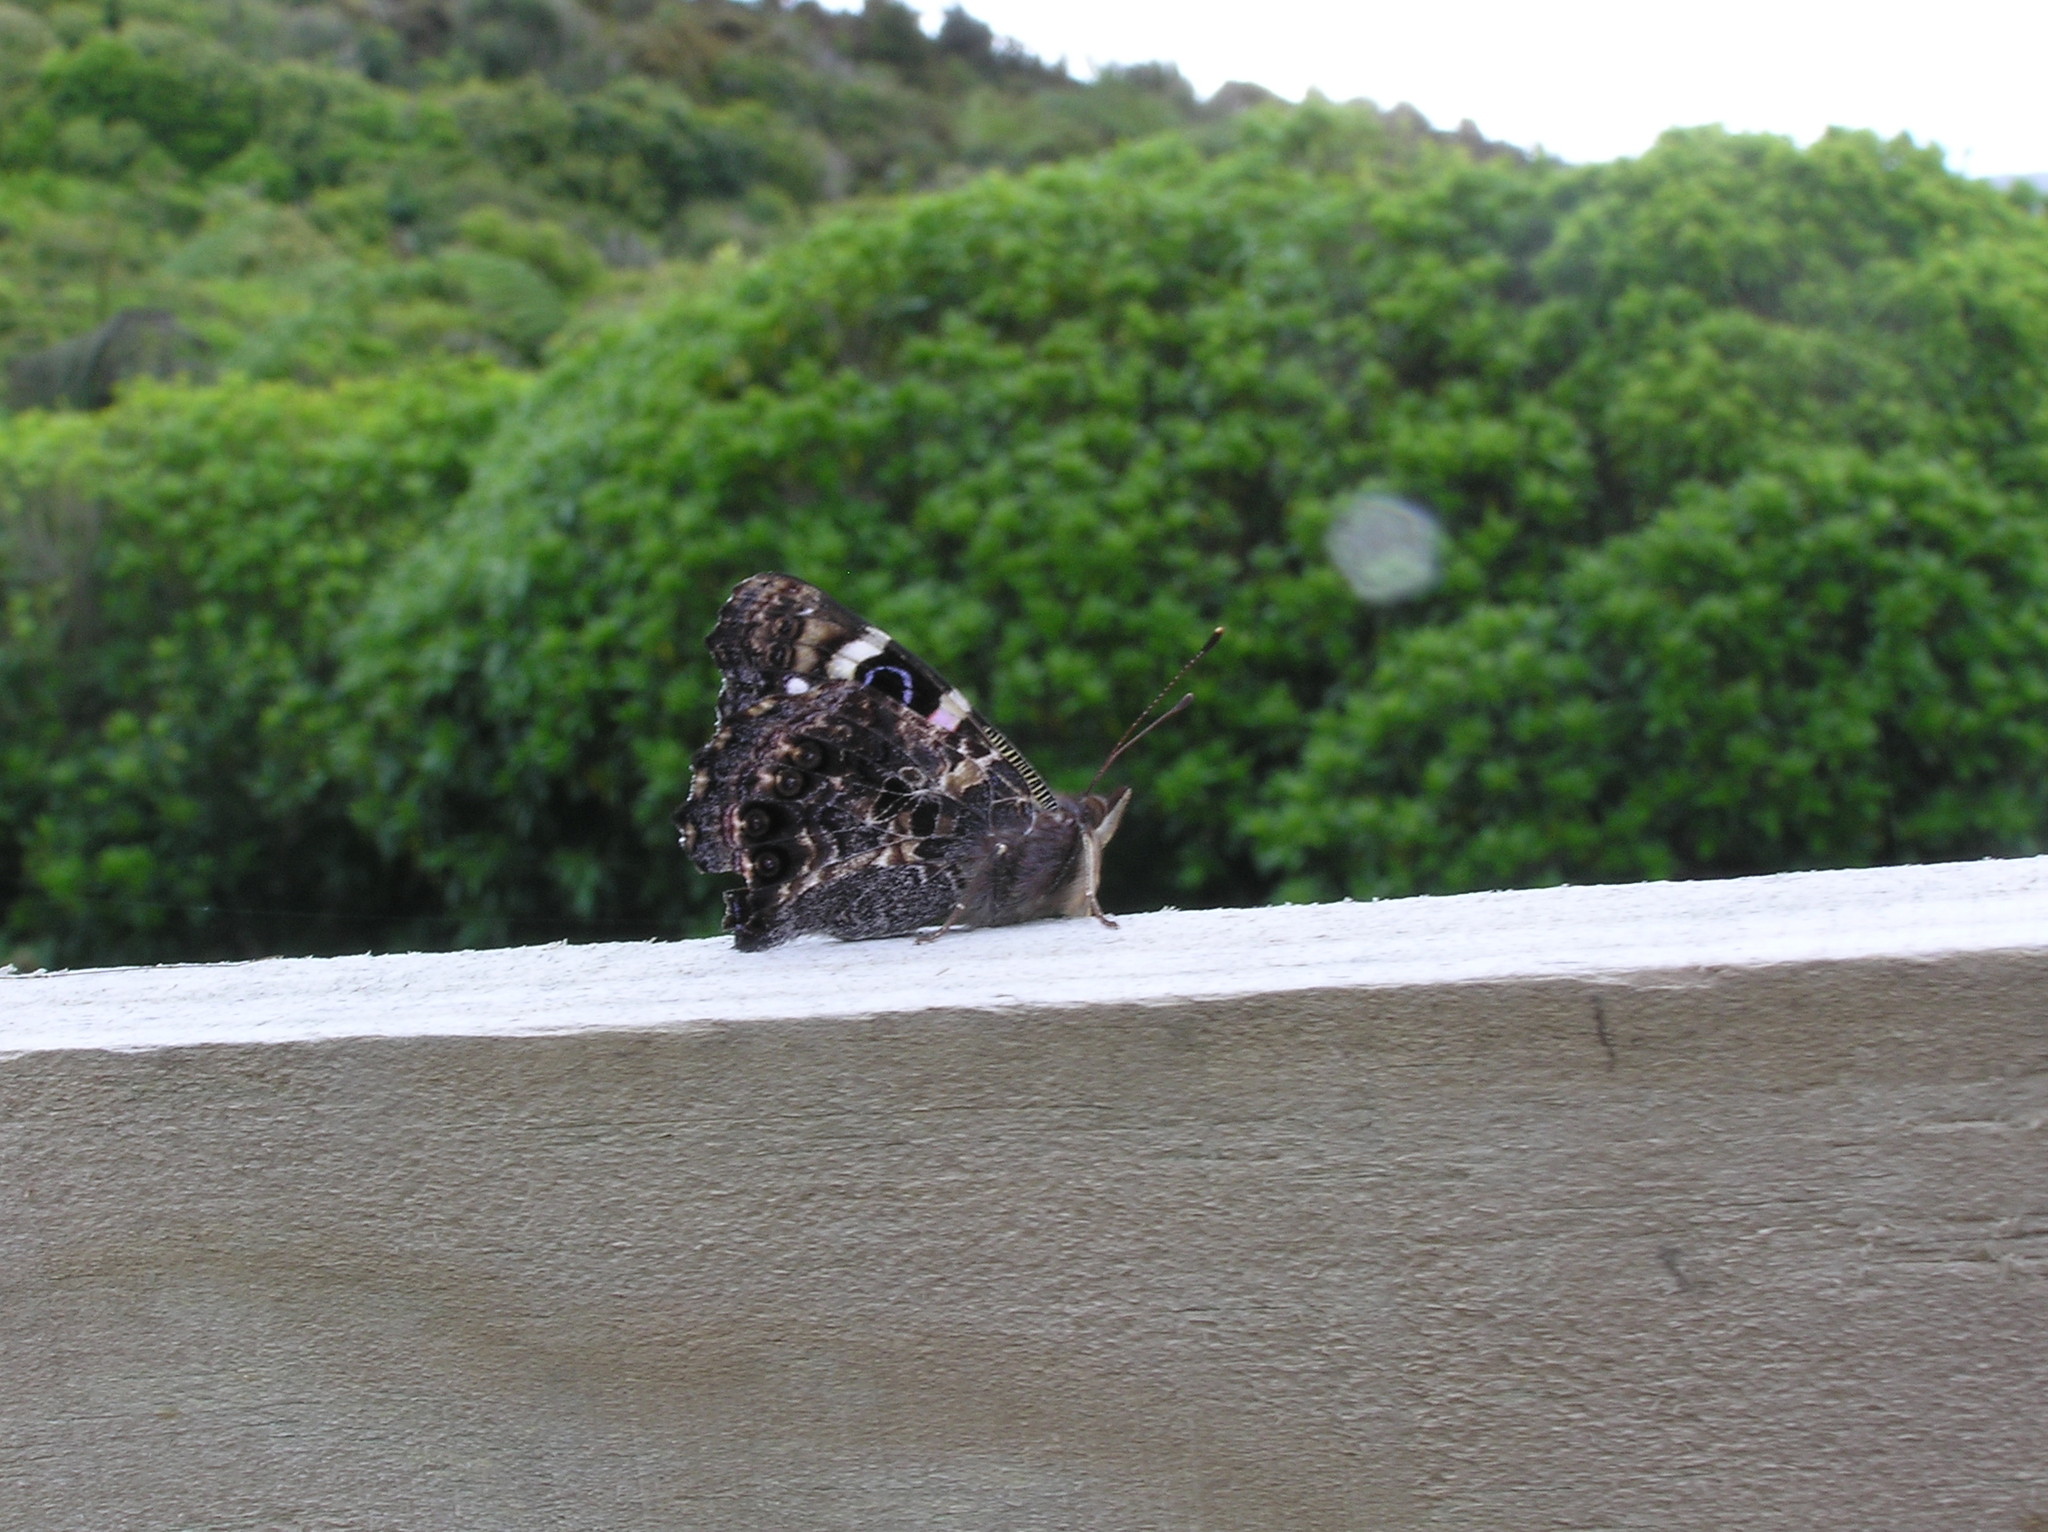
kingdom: Animalia
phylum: Arthropoda
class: Insecta
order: Lepidoptera
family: Nymphalidae
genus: Vanessa
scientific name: Vanessa gonerilla
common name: New zealand red admiral
